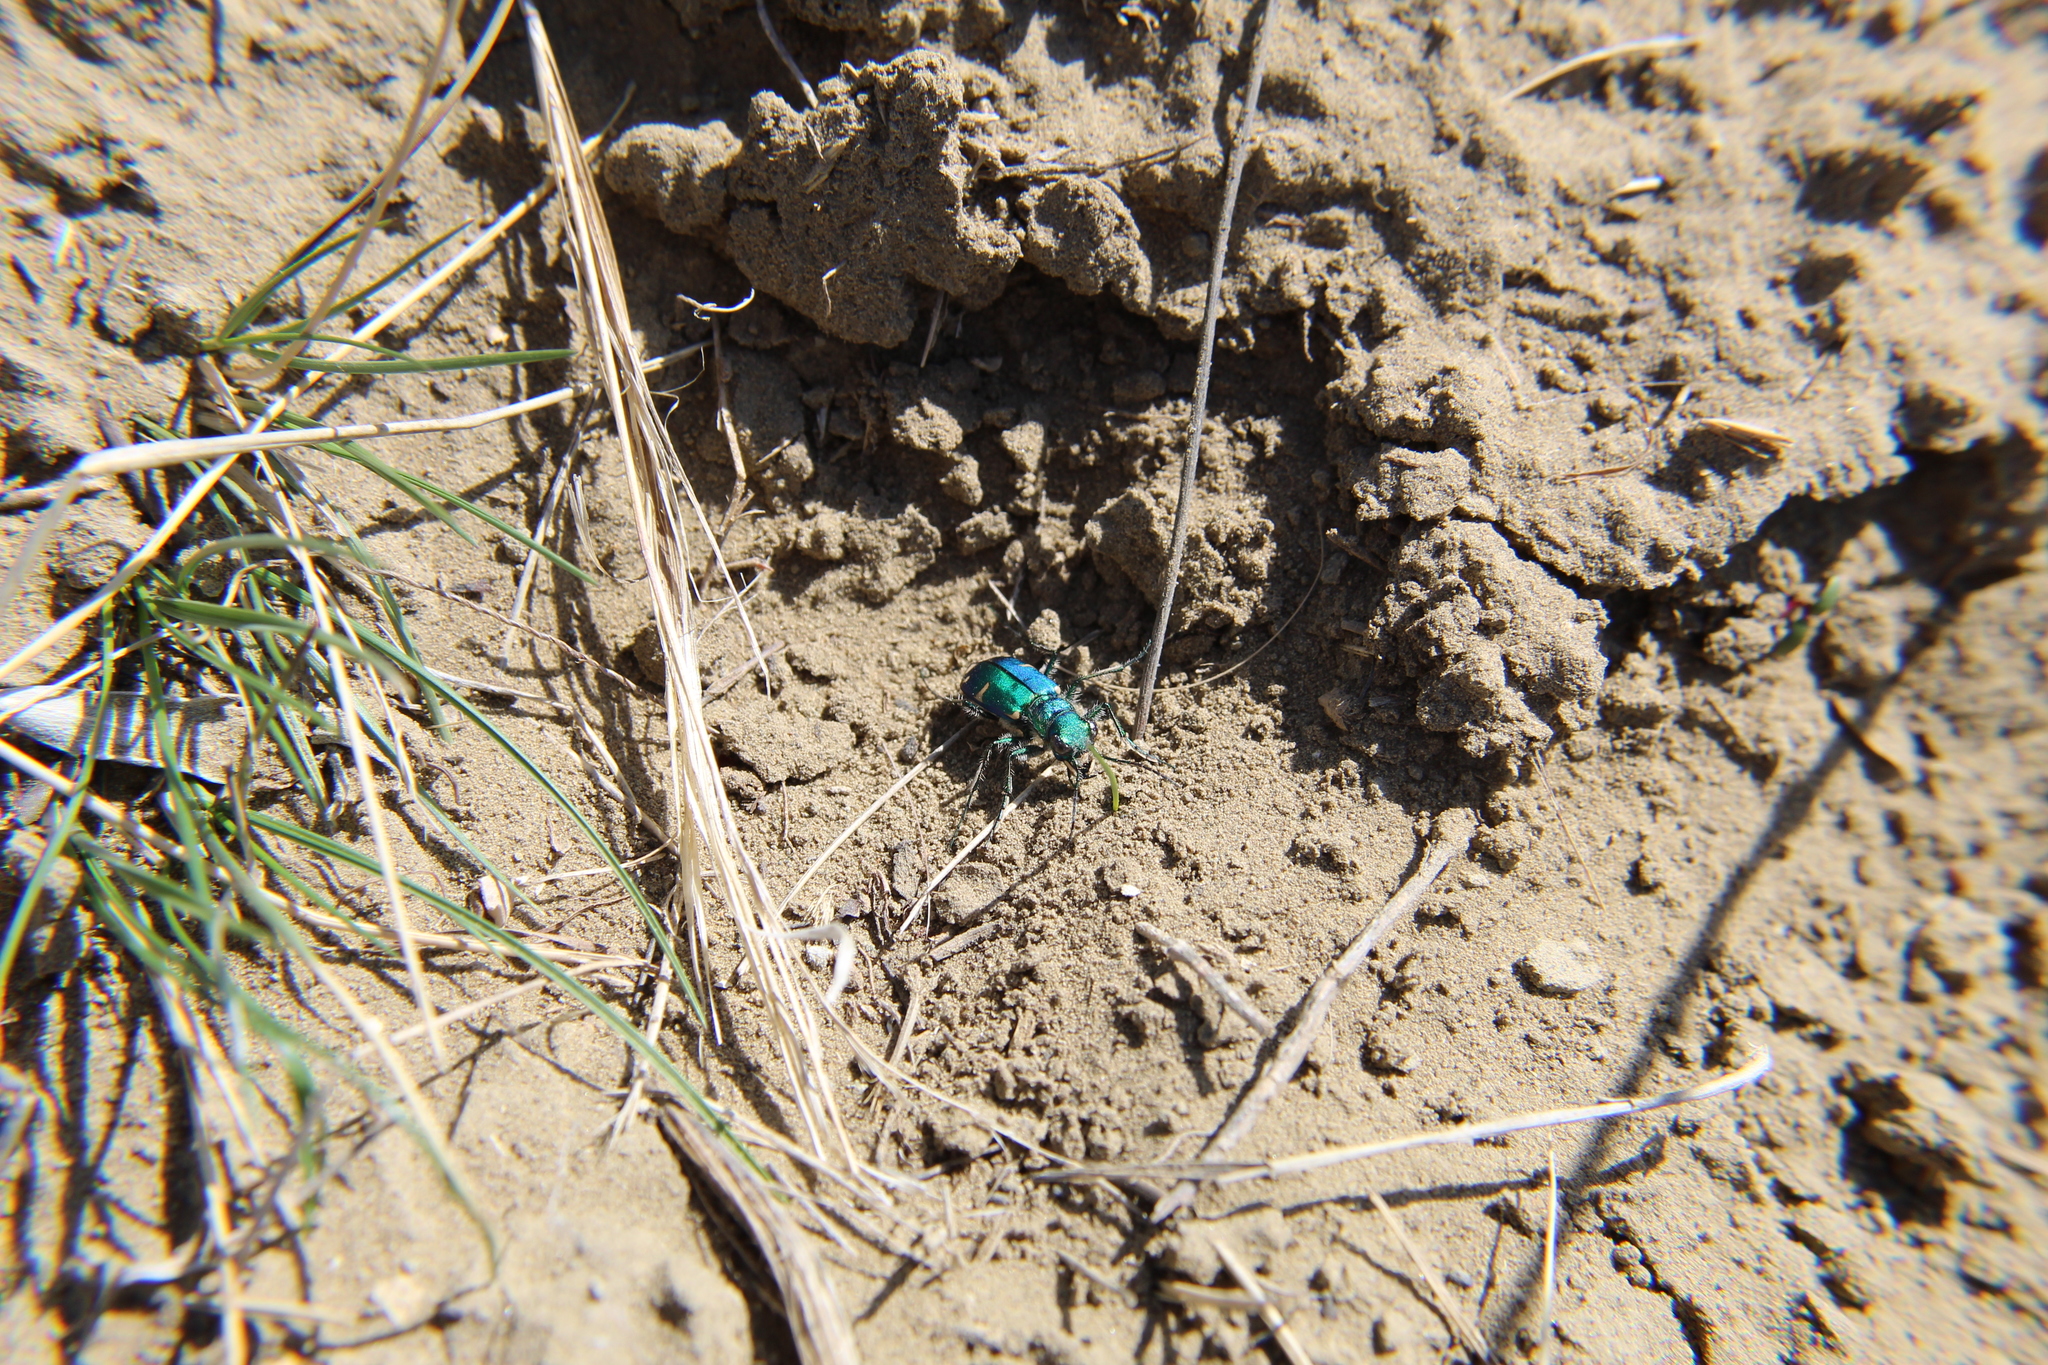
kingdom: Animalia
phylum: Arthropoda
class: Insecta
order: Coleoptera
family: Carabidae
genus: Cicindela
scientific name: Cicindela denverensis
